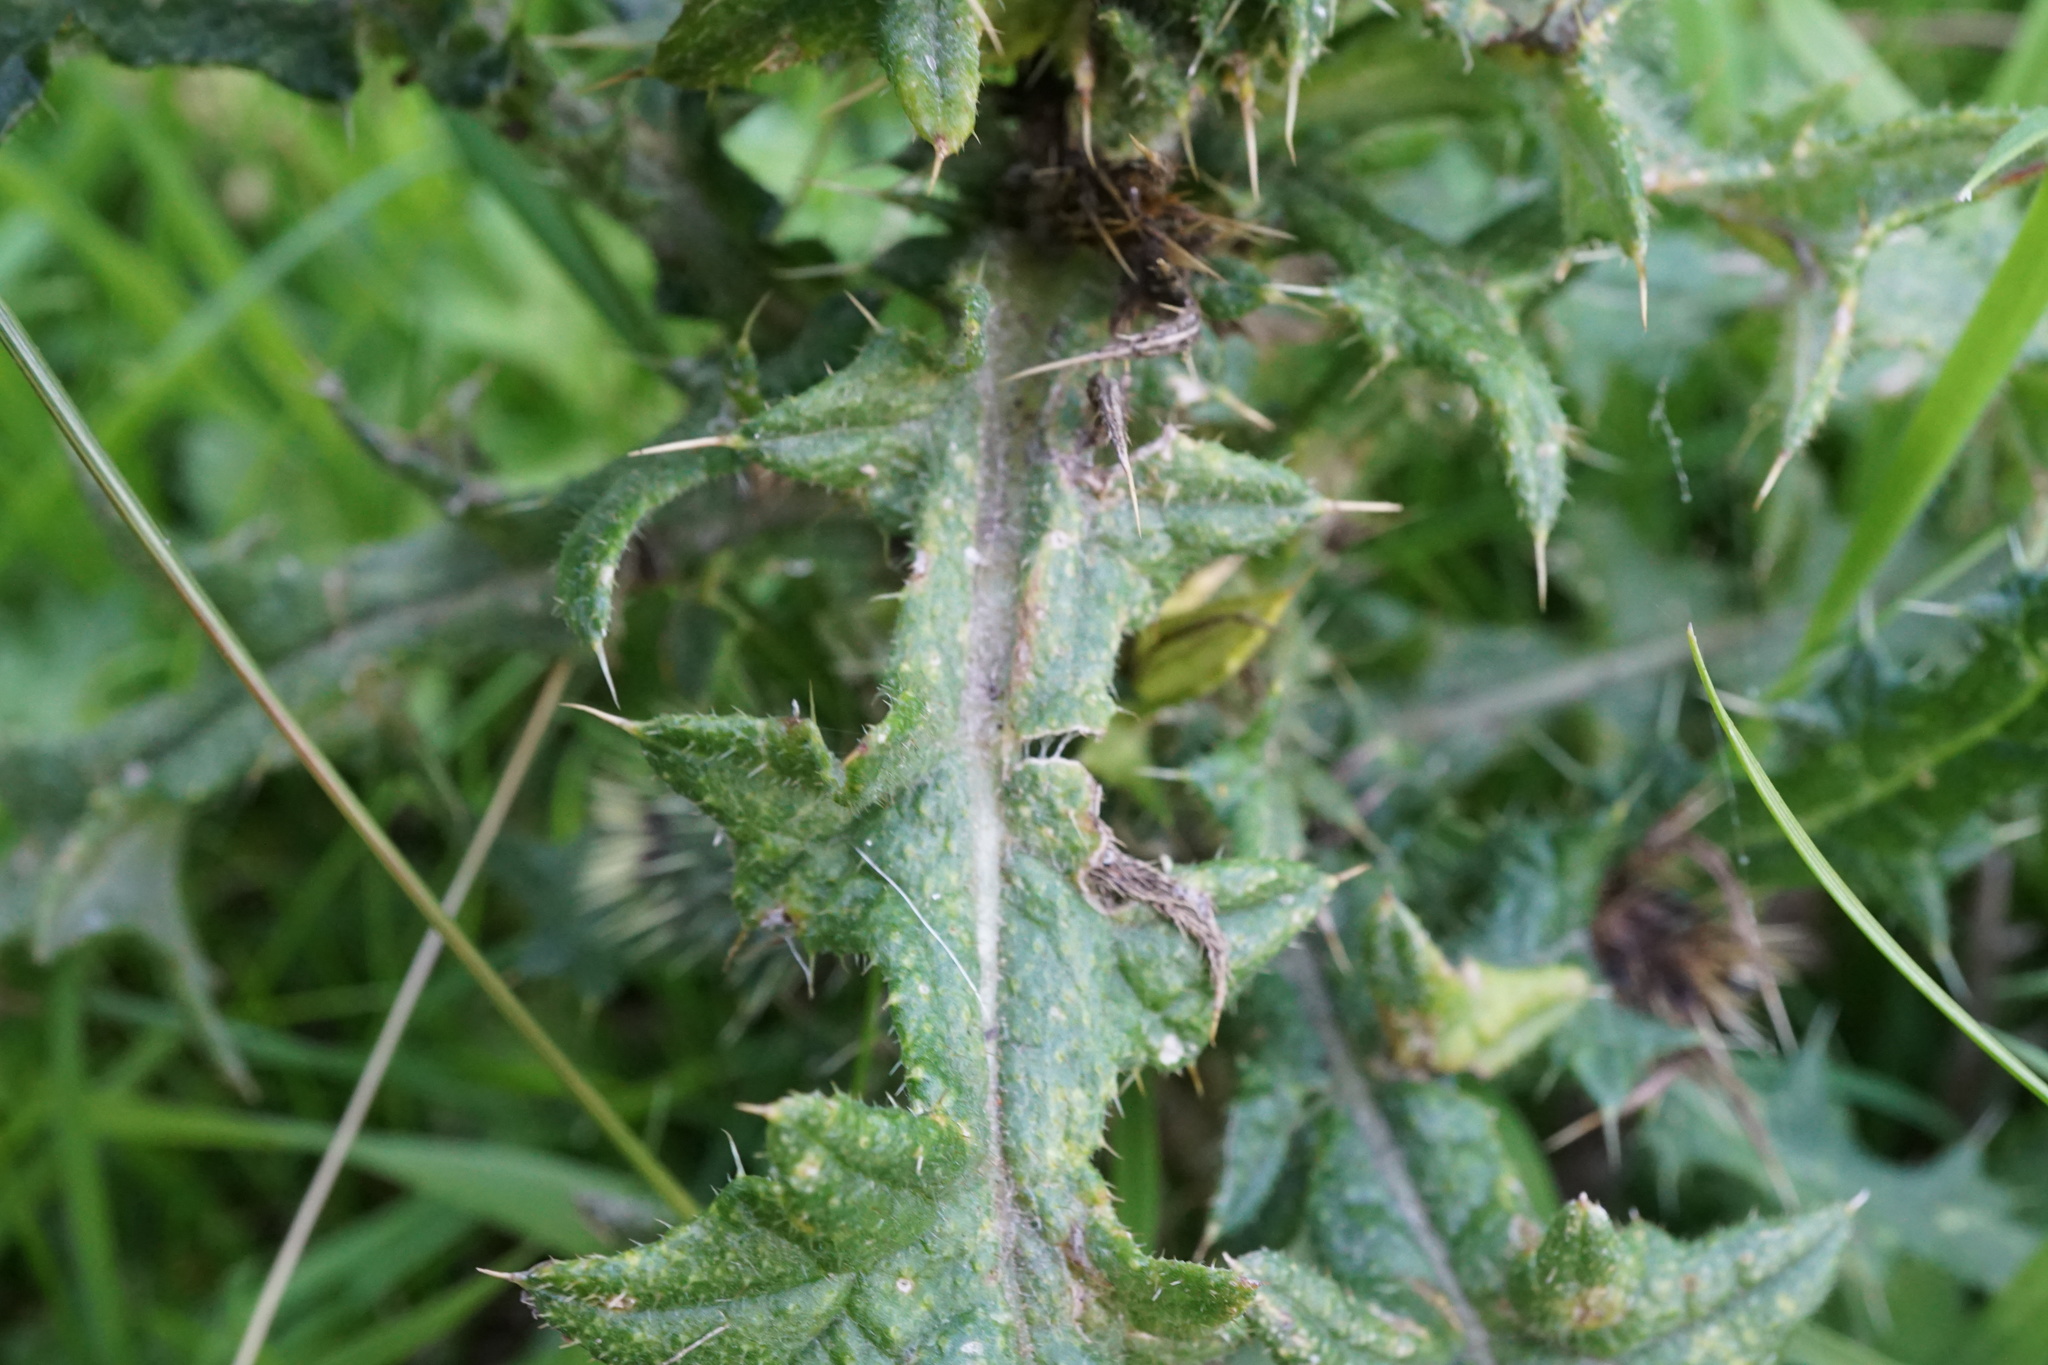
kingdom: Plantae
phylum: Tracheophyta
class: Magnoliopsida
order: Asterales
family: Asteraceae
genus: Cirsium
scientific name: Cirsium vulgare
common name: Bull thistle
